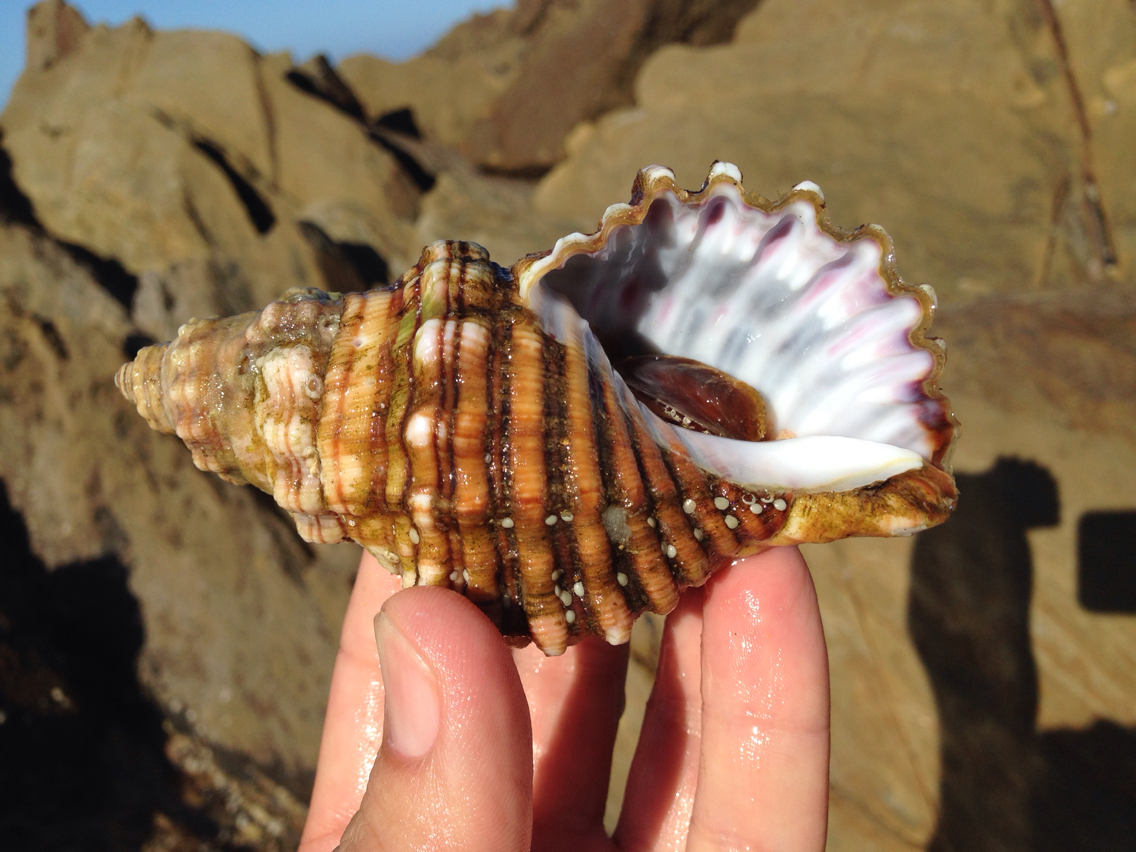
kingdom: Animalia
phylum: Mollusca
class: Gastropoda
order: Littorinimorpha
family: Cymatiidae
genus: Cabestana
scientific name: Cabestana spengleri
